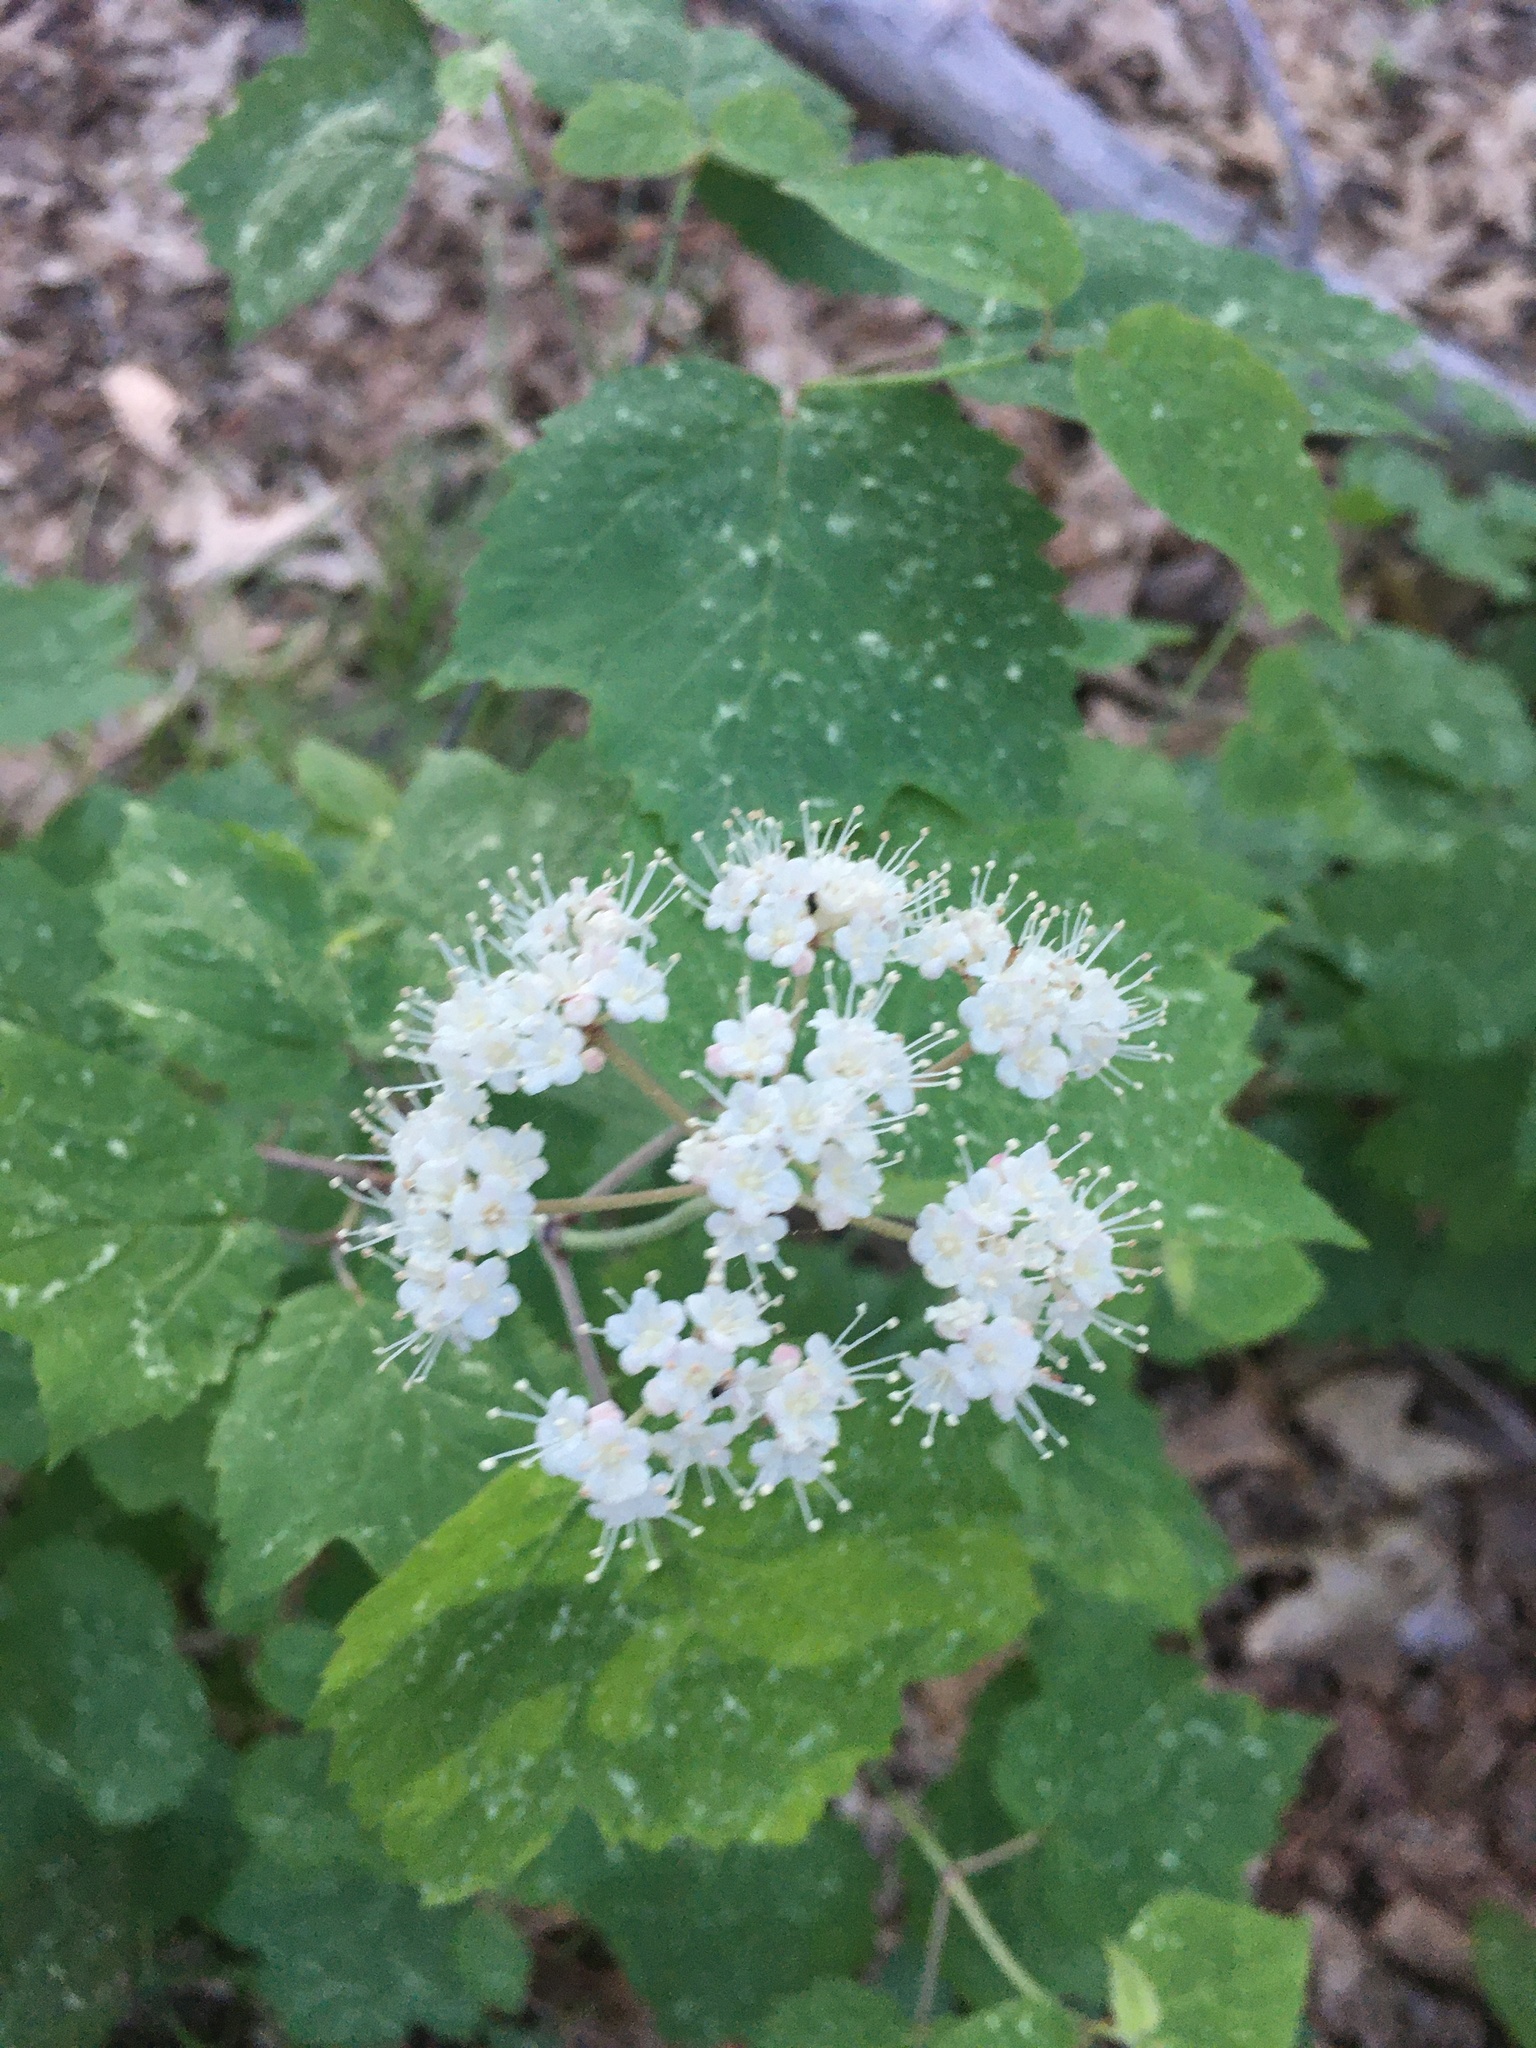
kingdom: Plantae
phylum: Tracheophyta
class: Magnoliopsida
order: Dipsacales
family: Viburnaceae
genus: Viburnum
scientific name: Viburnum acerifolium
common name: Dockmackie
